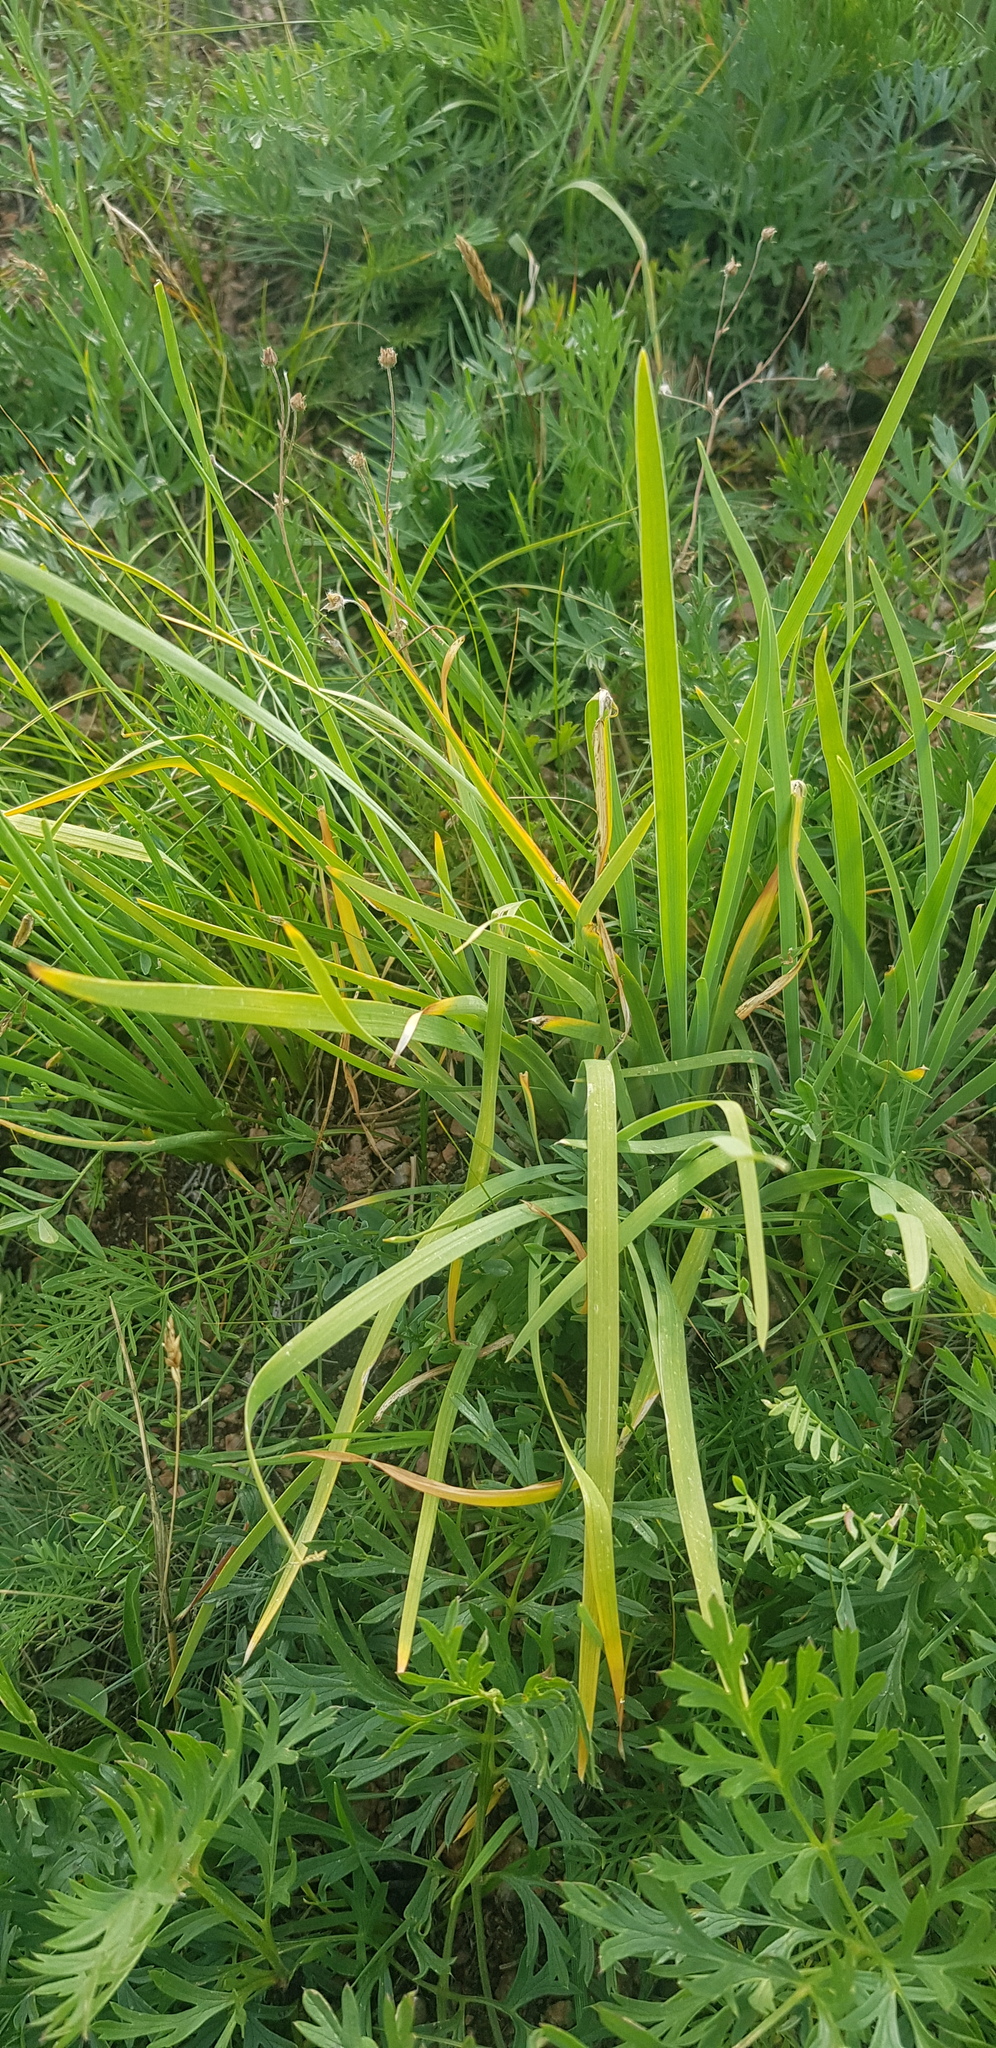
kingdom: Plantae
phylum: Tracheophyta
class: Liliopsida
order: Asparagales
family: Iridaceae
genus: Iris
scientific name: Iris humilis
